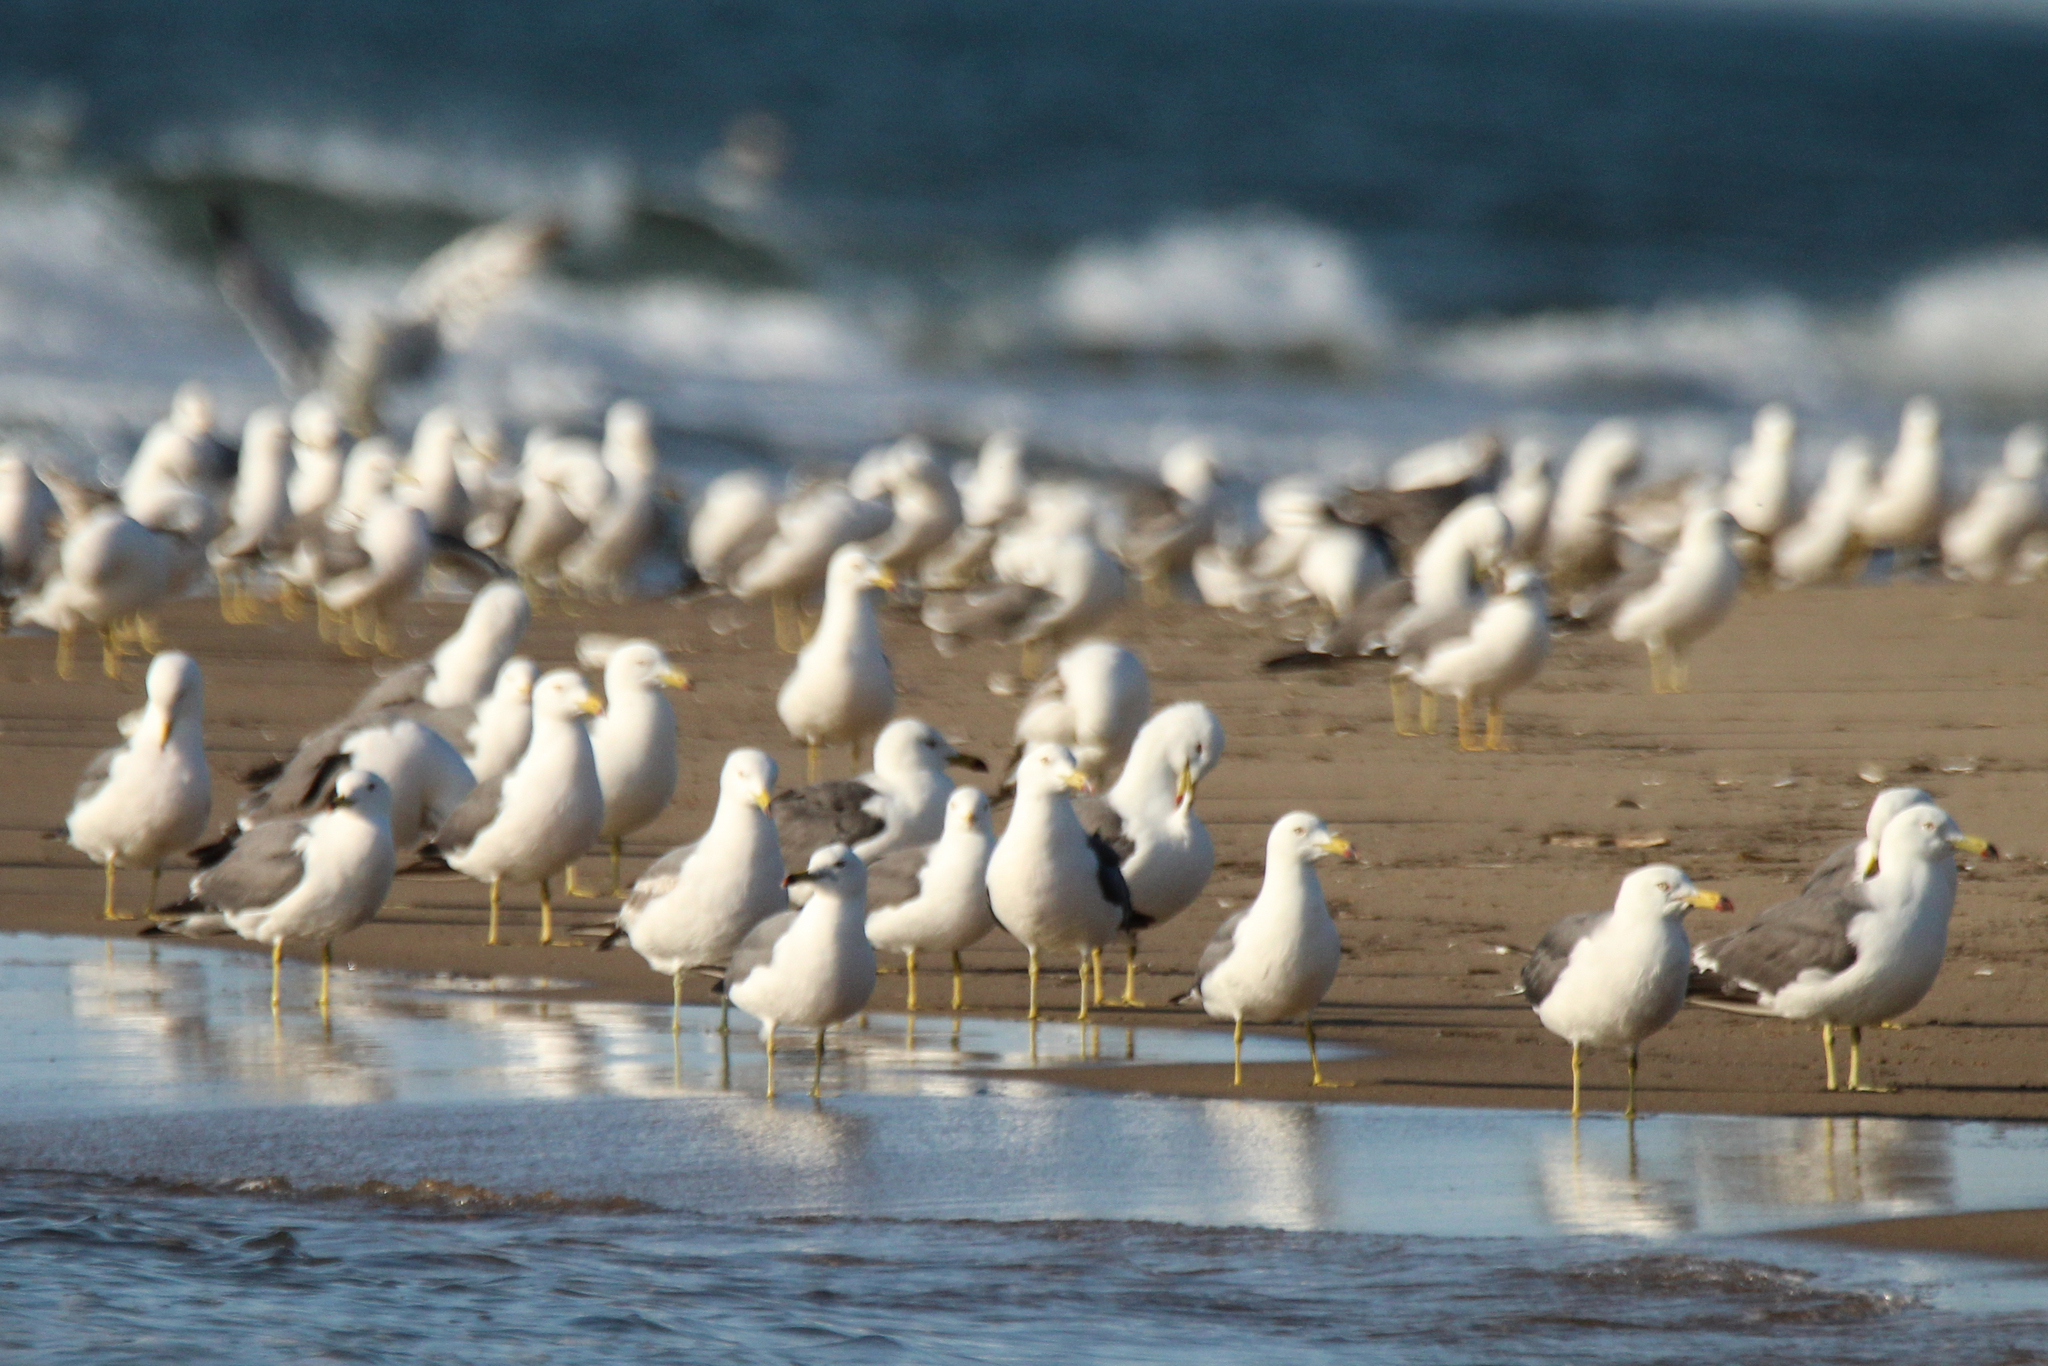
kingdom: Animalia
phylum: Chordata
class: Aves
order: Charadriiformes
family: Laridae
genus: Larus
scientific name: Larus crassirostris
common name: Black-tailed gull
